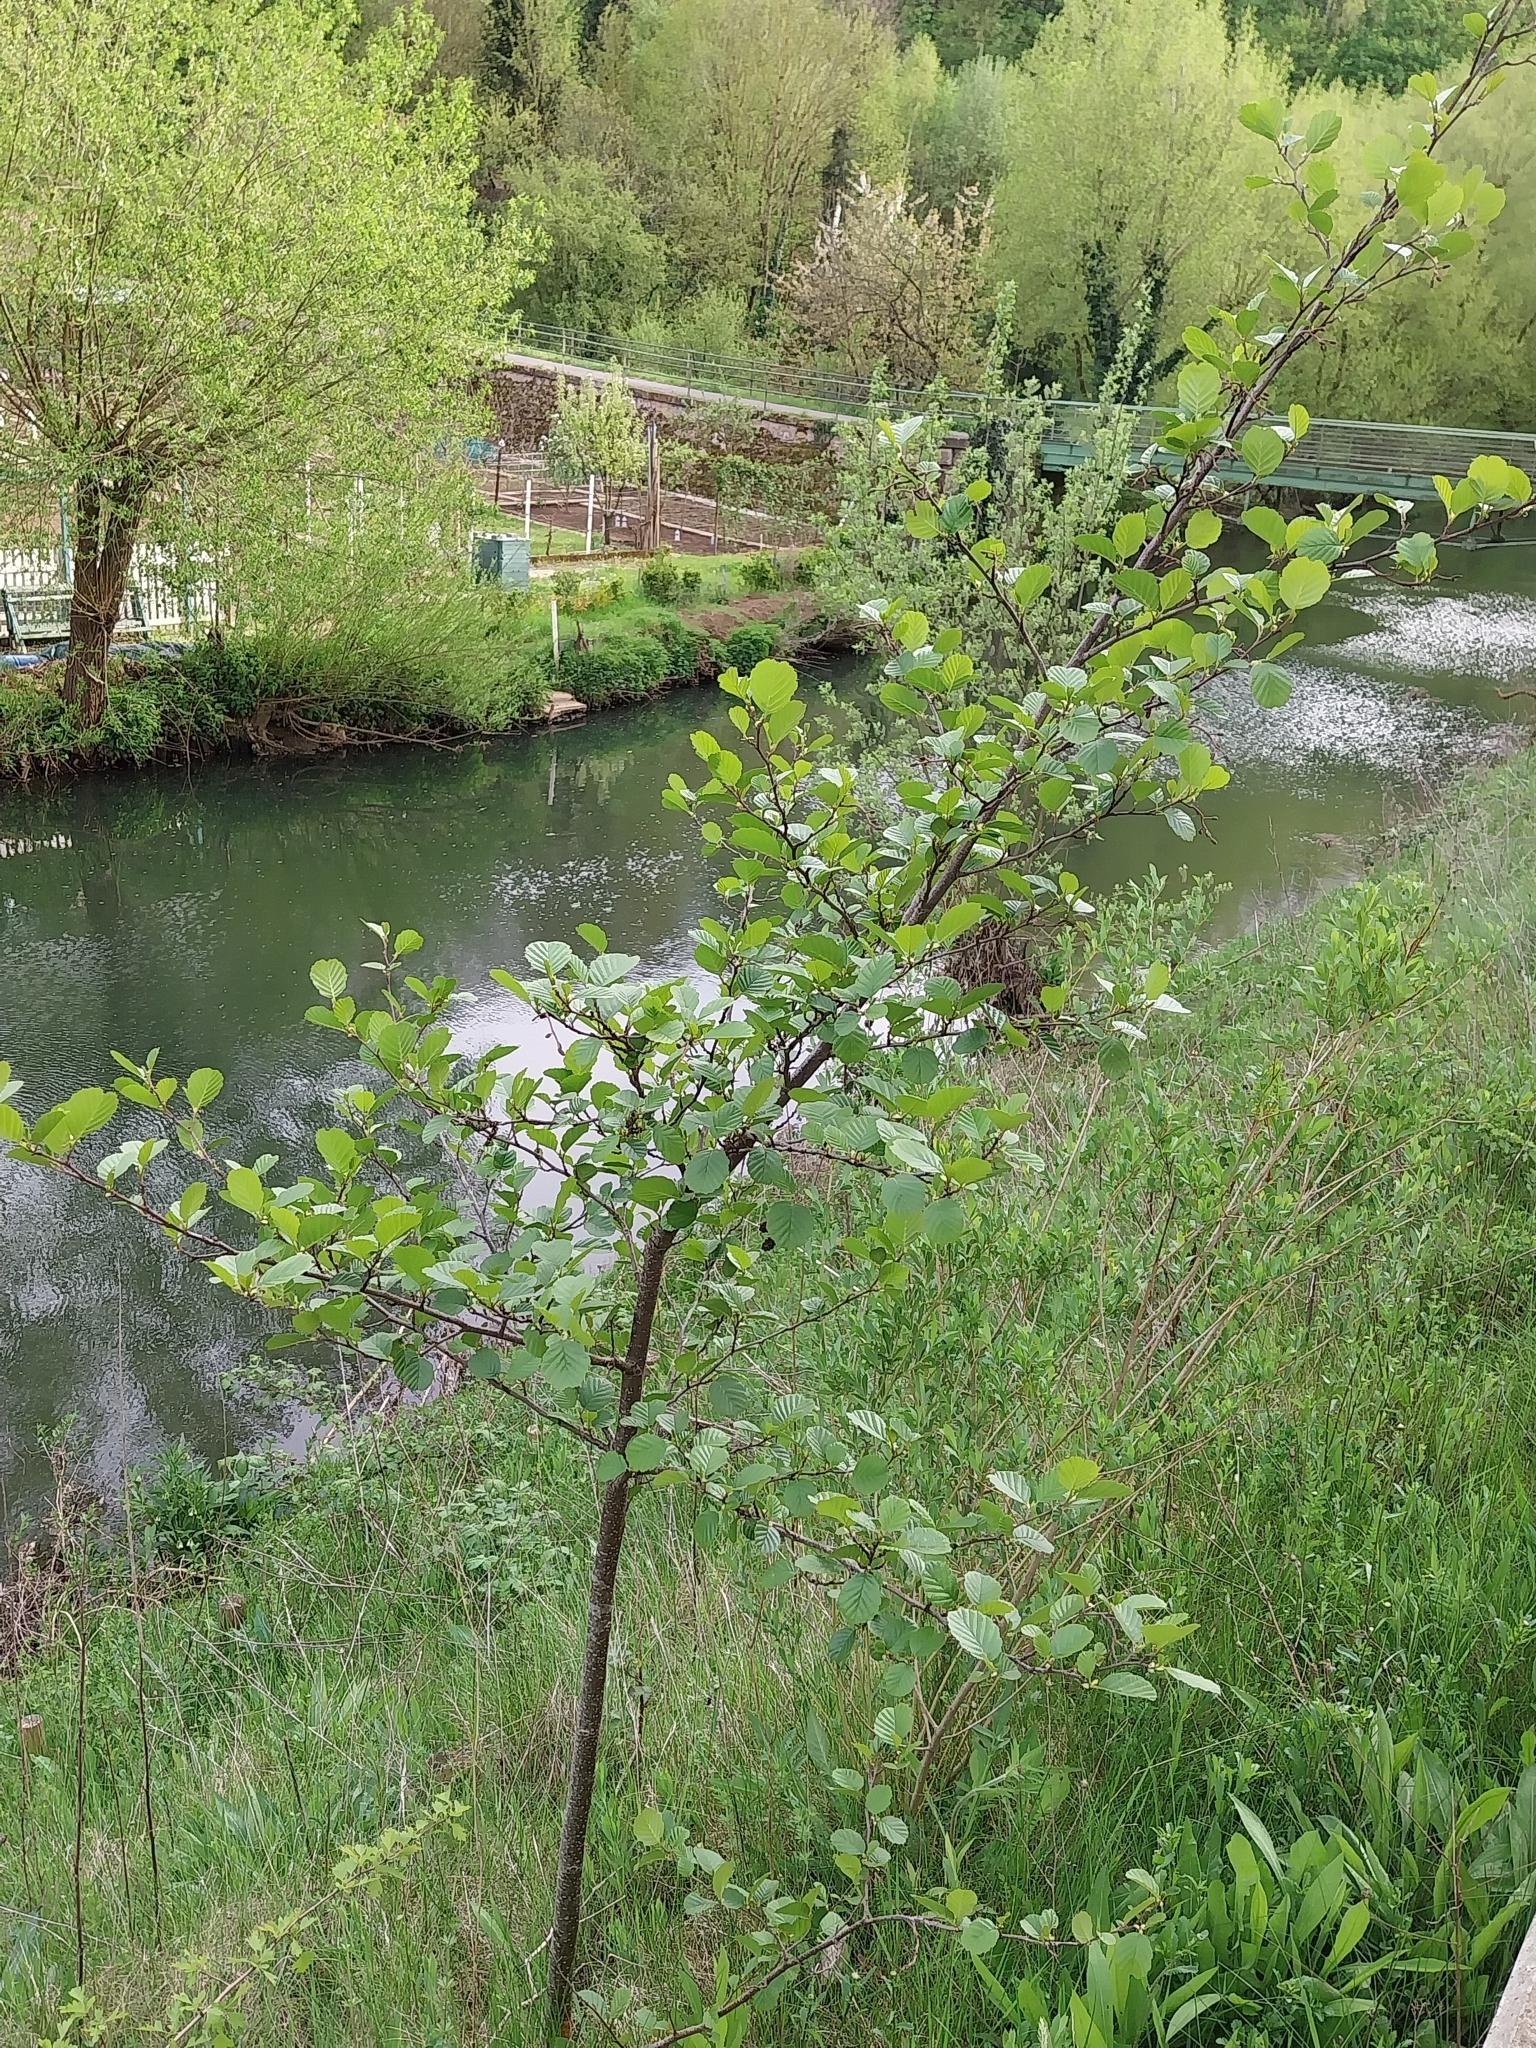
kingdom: Plantae
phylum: Tracheophyta
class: Magnoliopsida
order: Fagales
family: Betulaceae
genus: Alnus
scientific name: Alnus glutinosa
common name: Black alder
